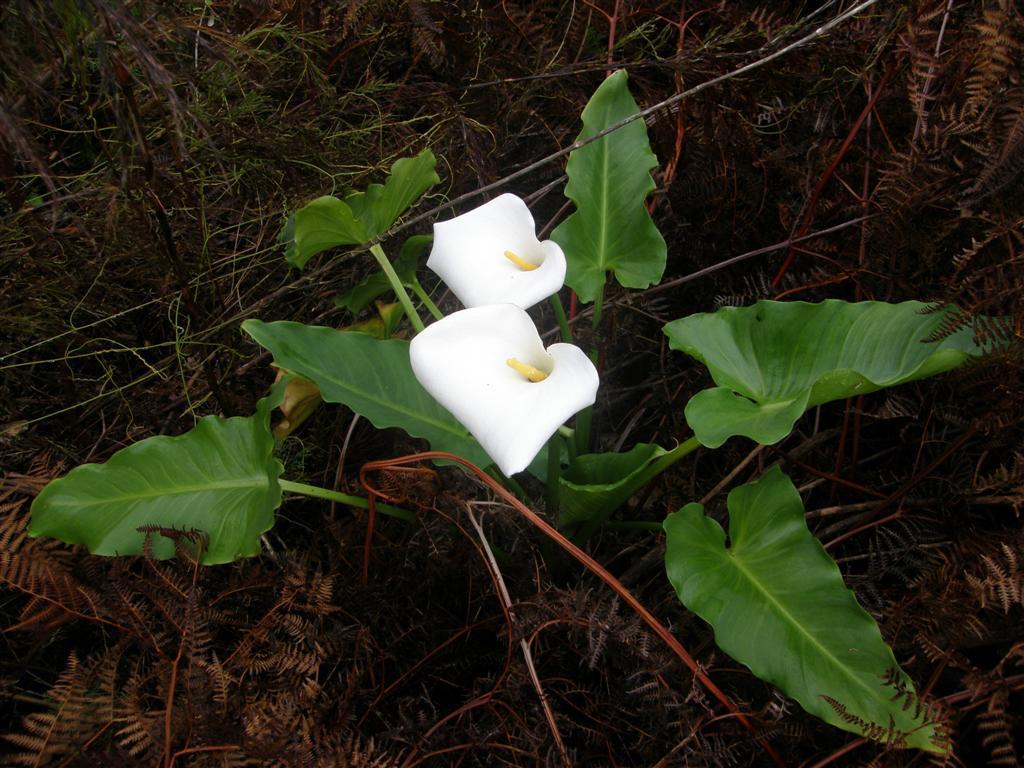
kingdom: Plantae
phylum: Tracheophyta
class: Liliopsida
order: Alismatales
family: Araceae
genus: Zantedeschia
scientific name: Zantedeschia aethiopica
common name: Altar-lily
